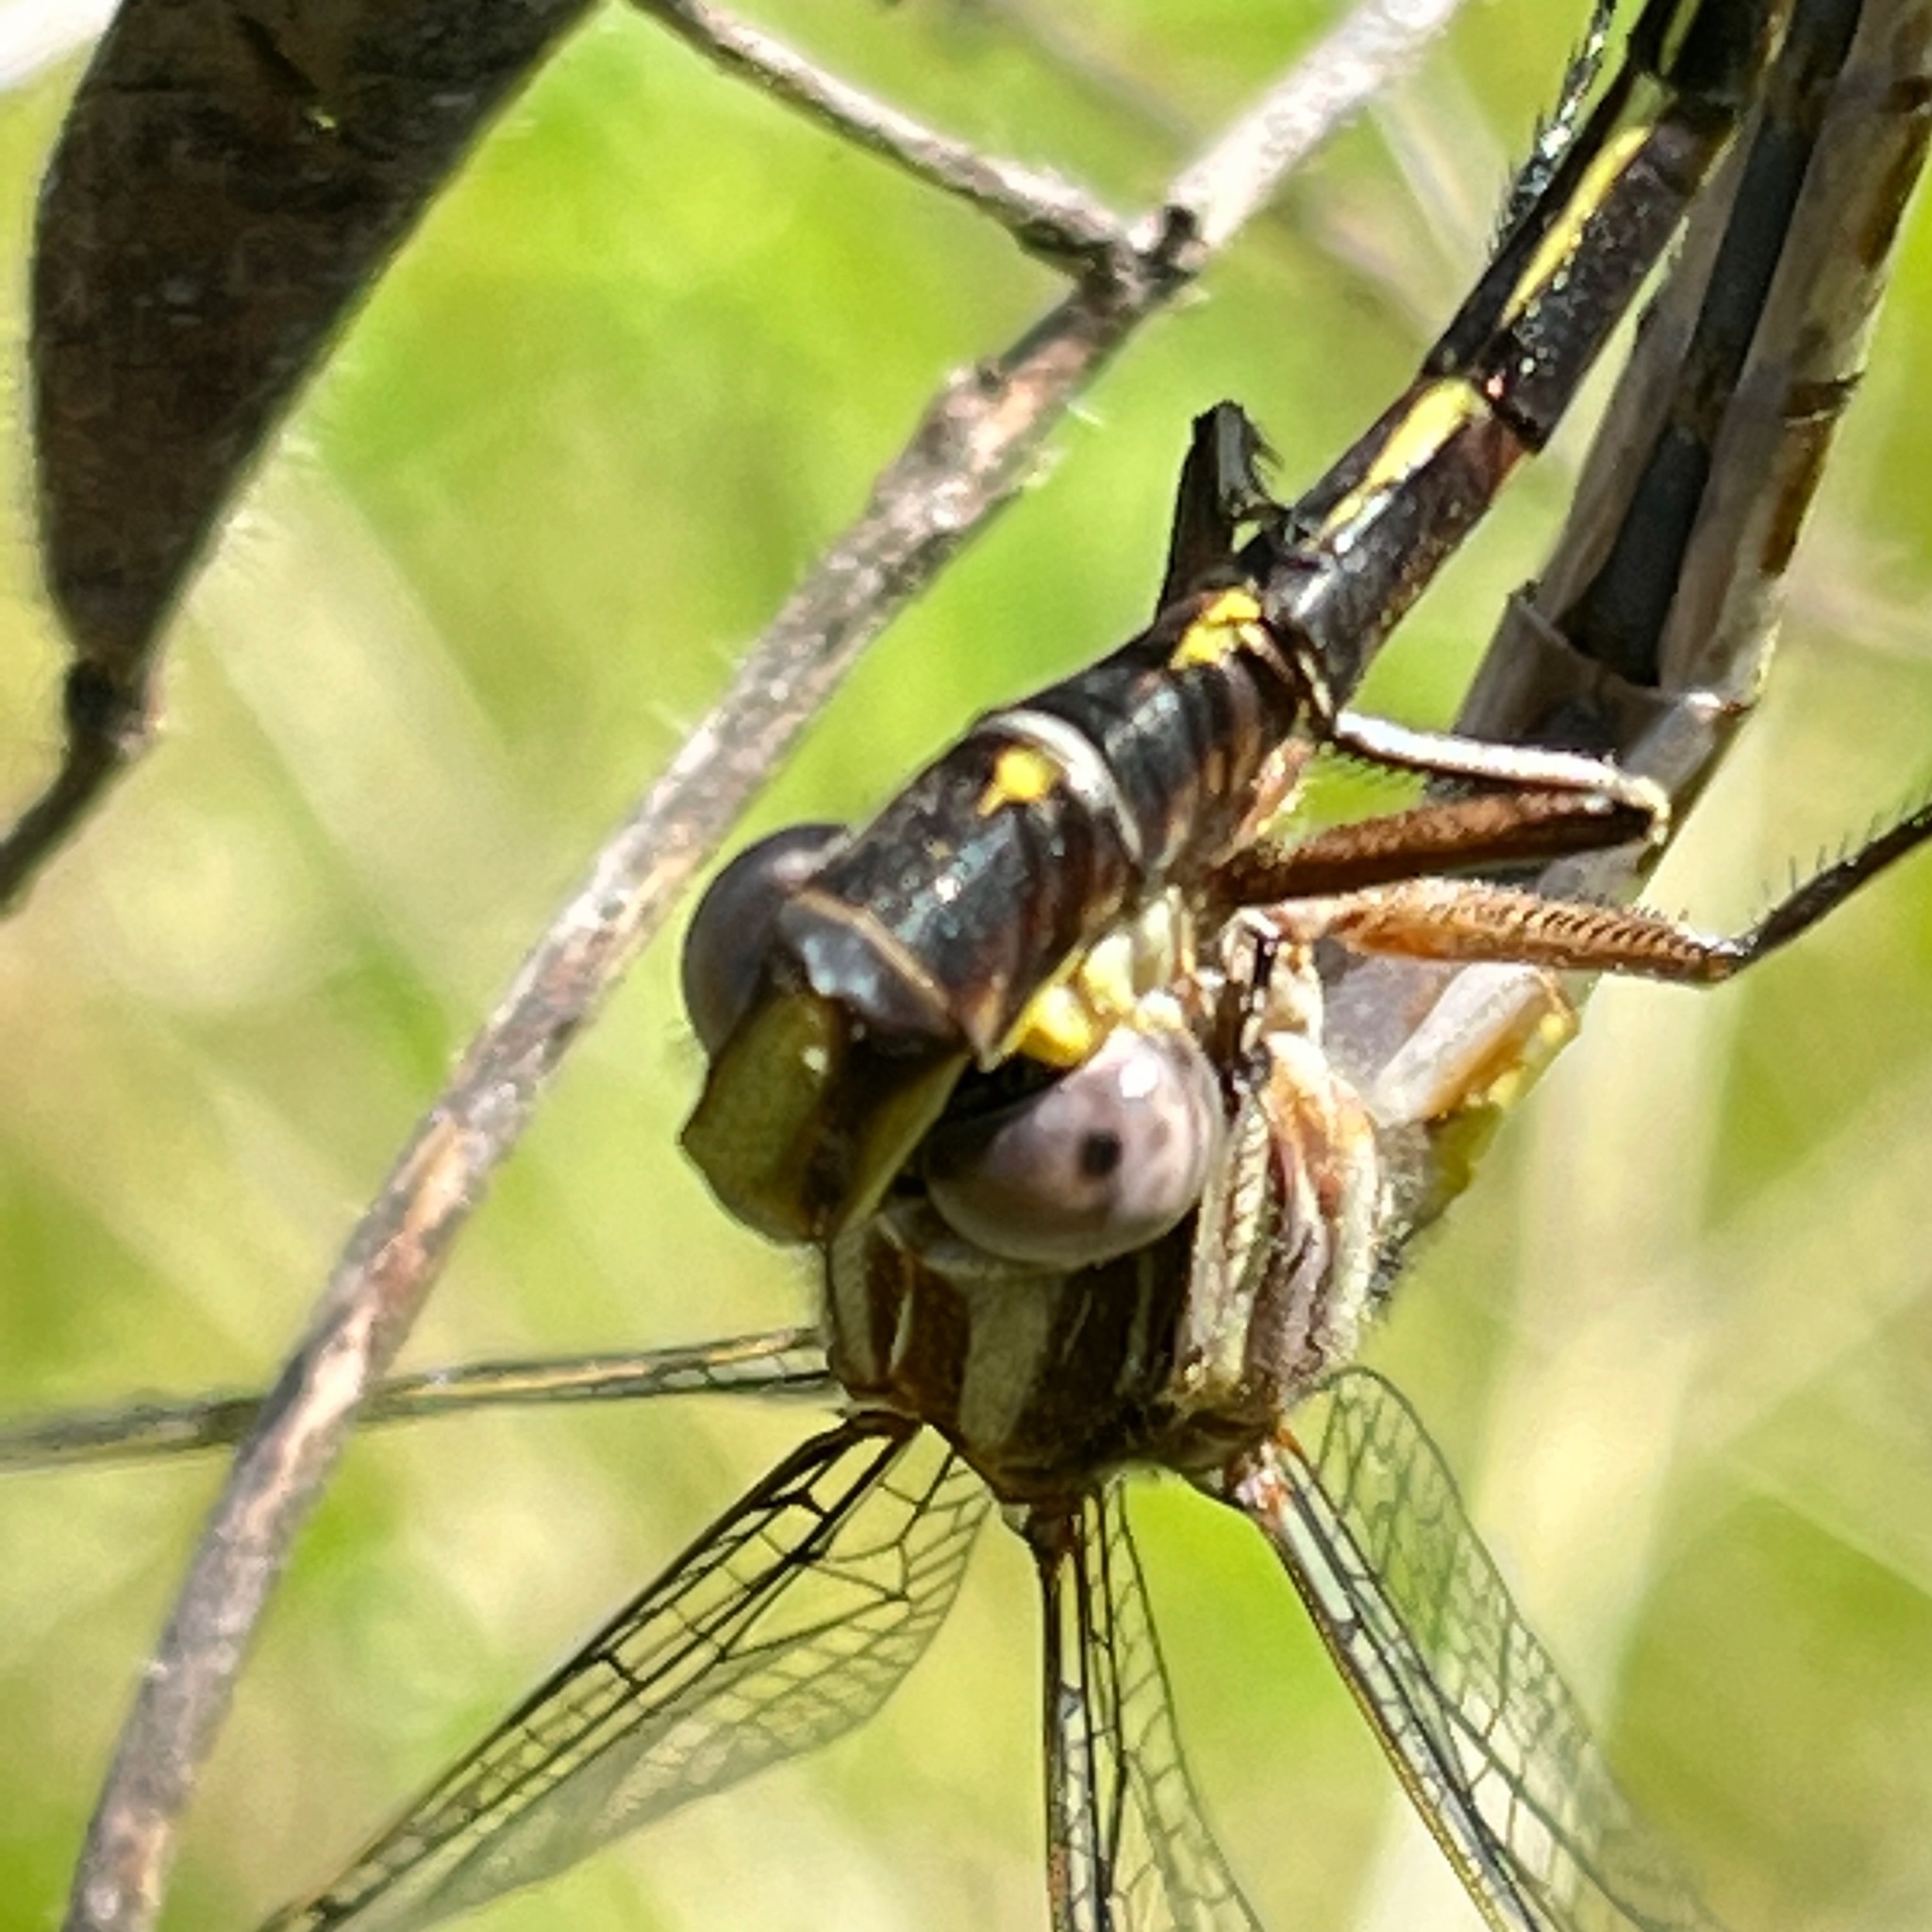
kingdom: Animalia
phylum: Arthropoda
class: Insecta
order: Odonata
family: Gomphidae
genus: Phanogomphus
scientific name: Phanogomphus lividus
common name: Ashy clubtail
